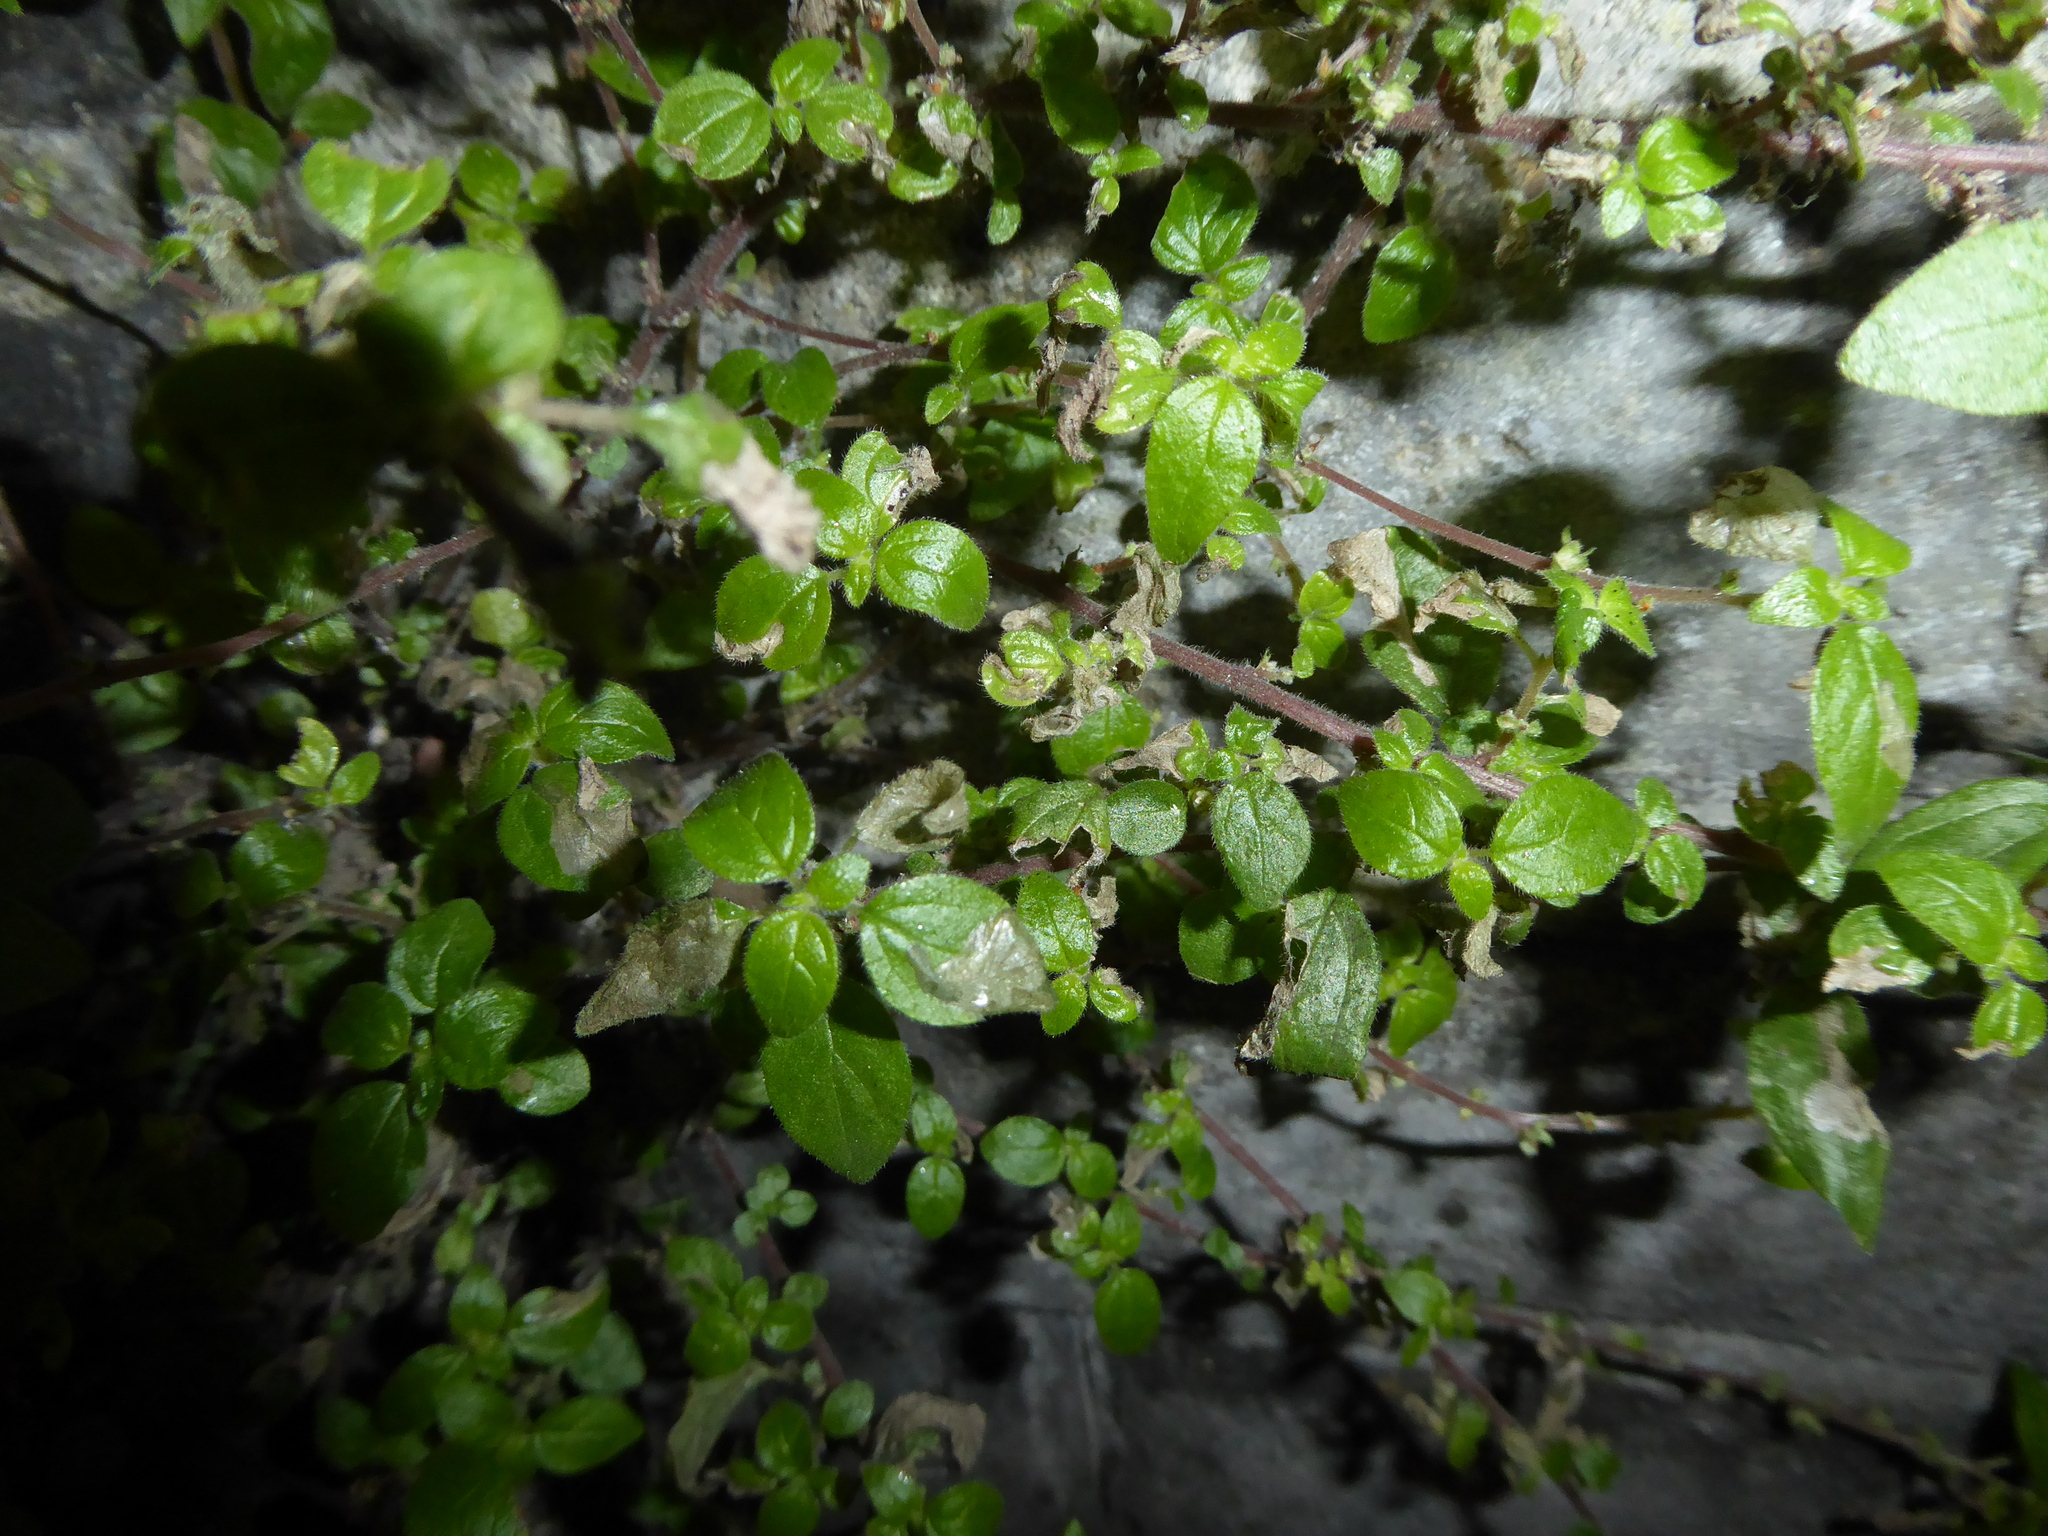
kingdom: Plantae
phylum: Tracheophyta
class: Magnoliopsida
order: Rosales
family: Urticaceae
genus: Parietaria
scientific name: Parietaria judaica
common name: Pellitory-of-the-wall
